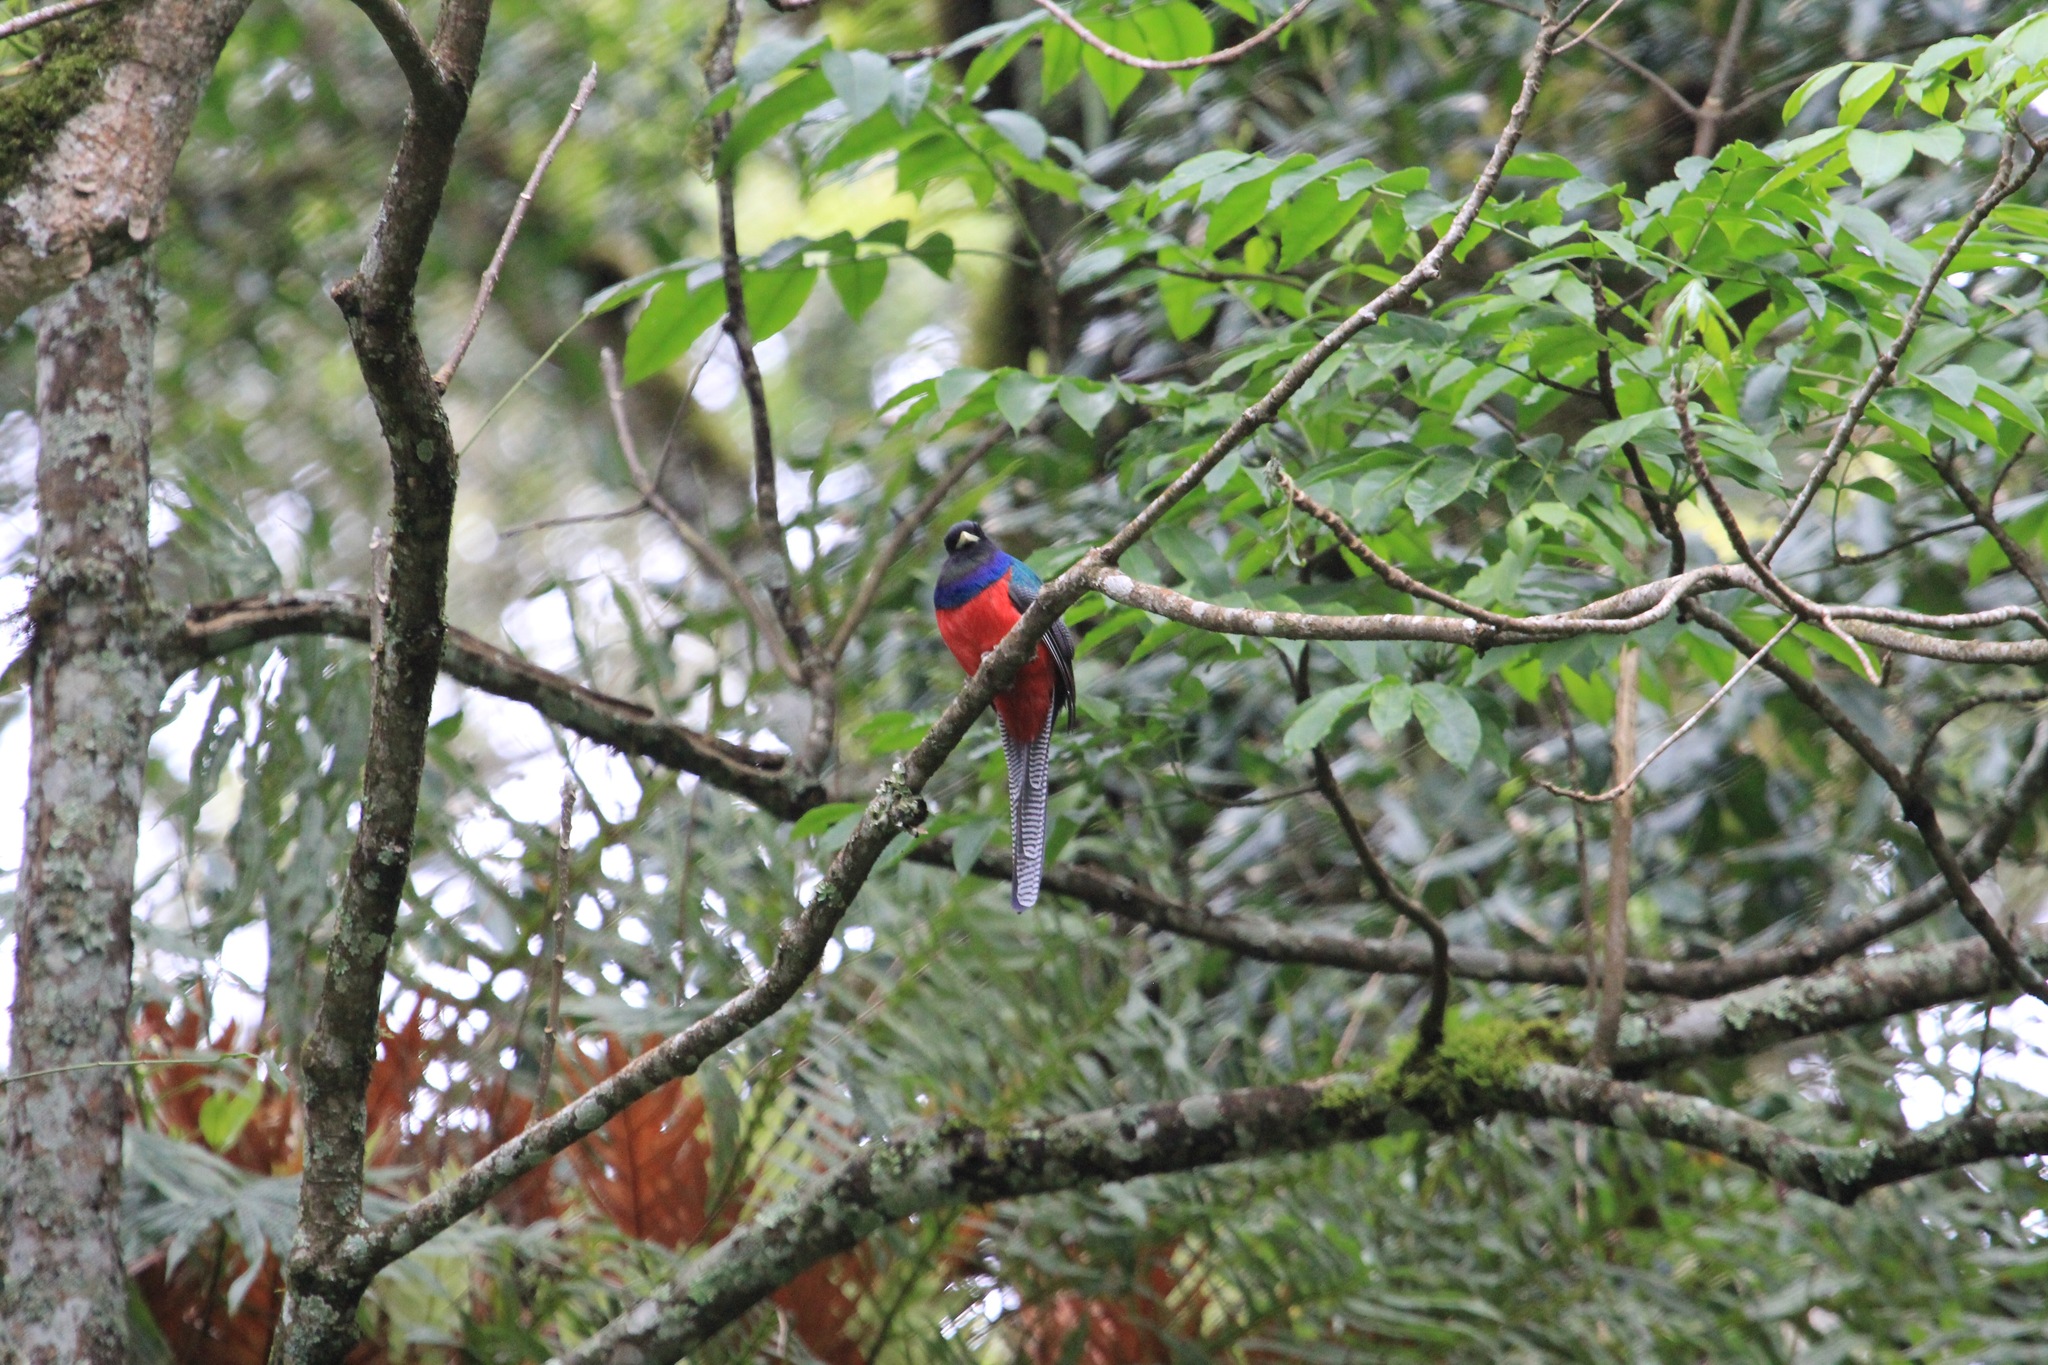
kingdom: Animalia
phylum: Chordata
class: Aves
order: Trogoniformes
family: Trogonidae
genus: Apaloderma
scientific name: Apaloderma vittatum
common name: Bar-tailed trogon
